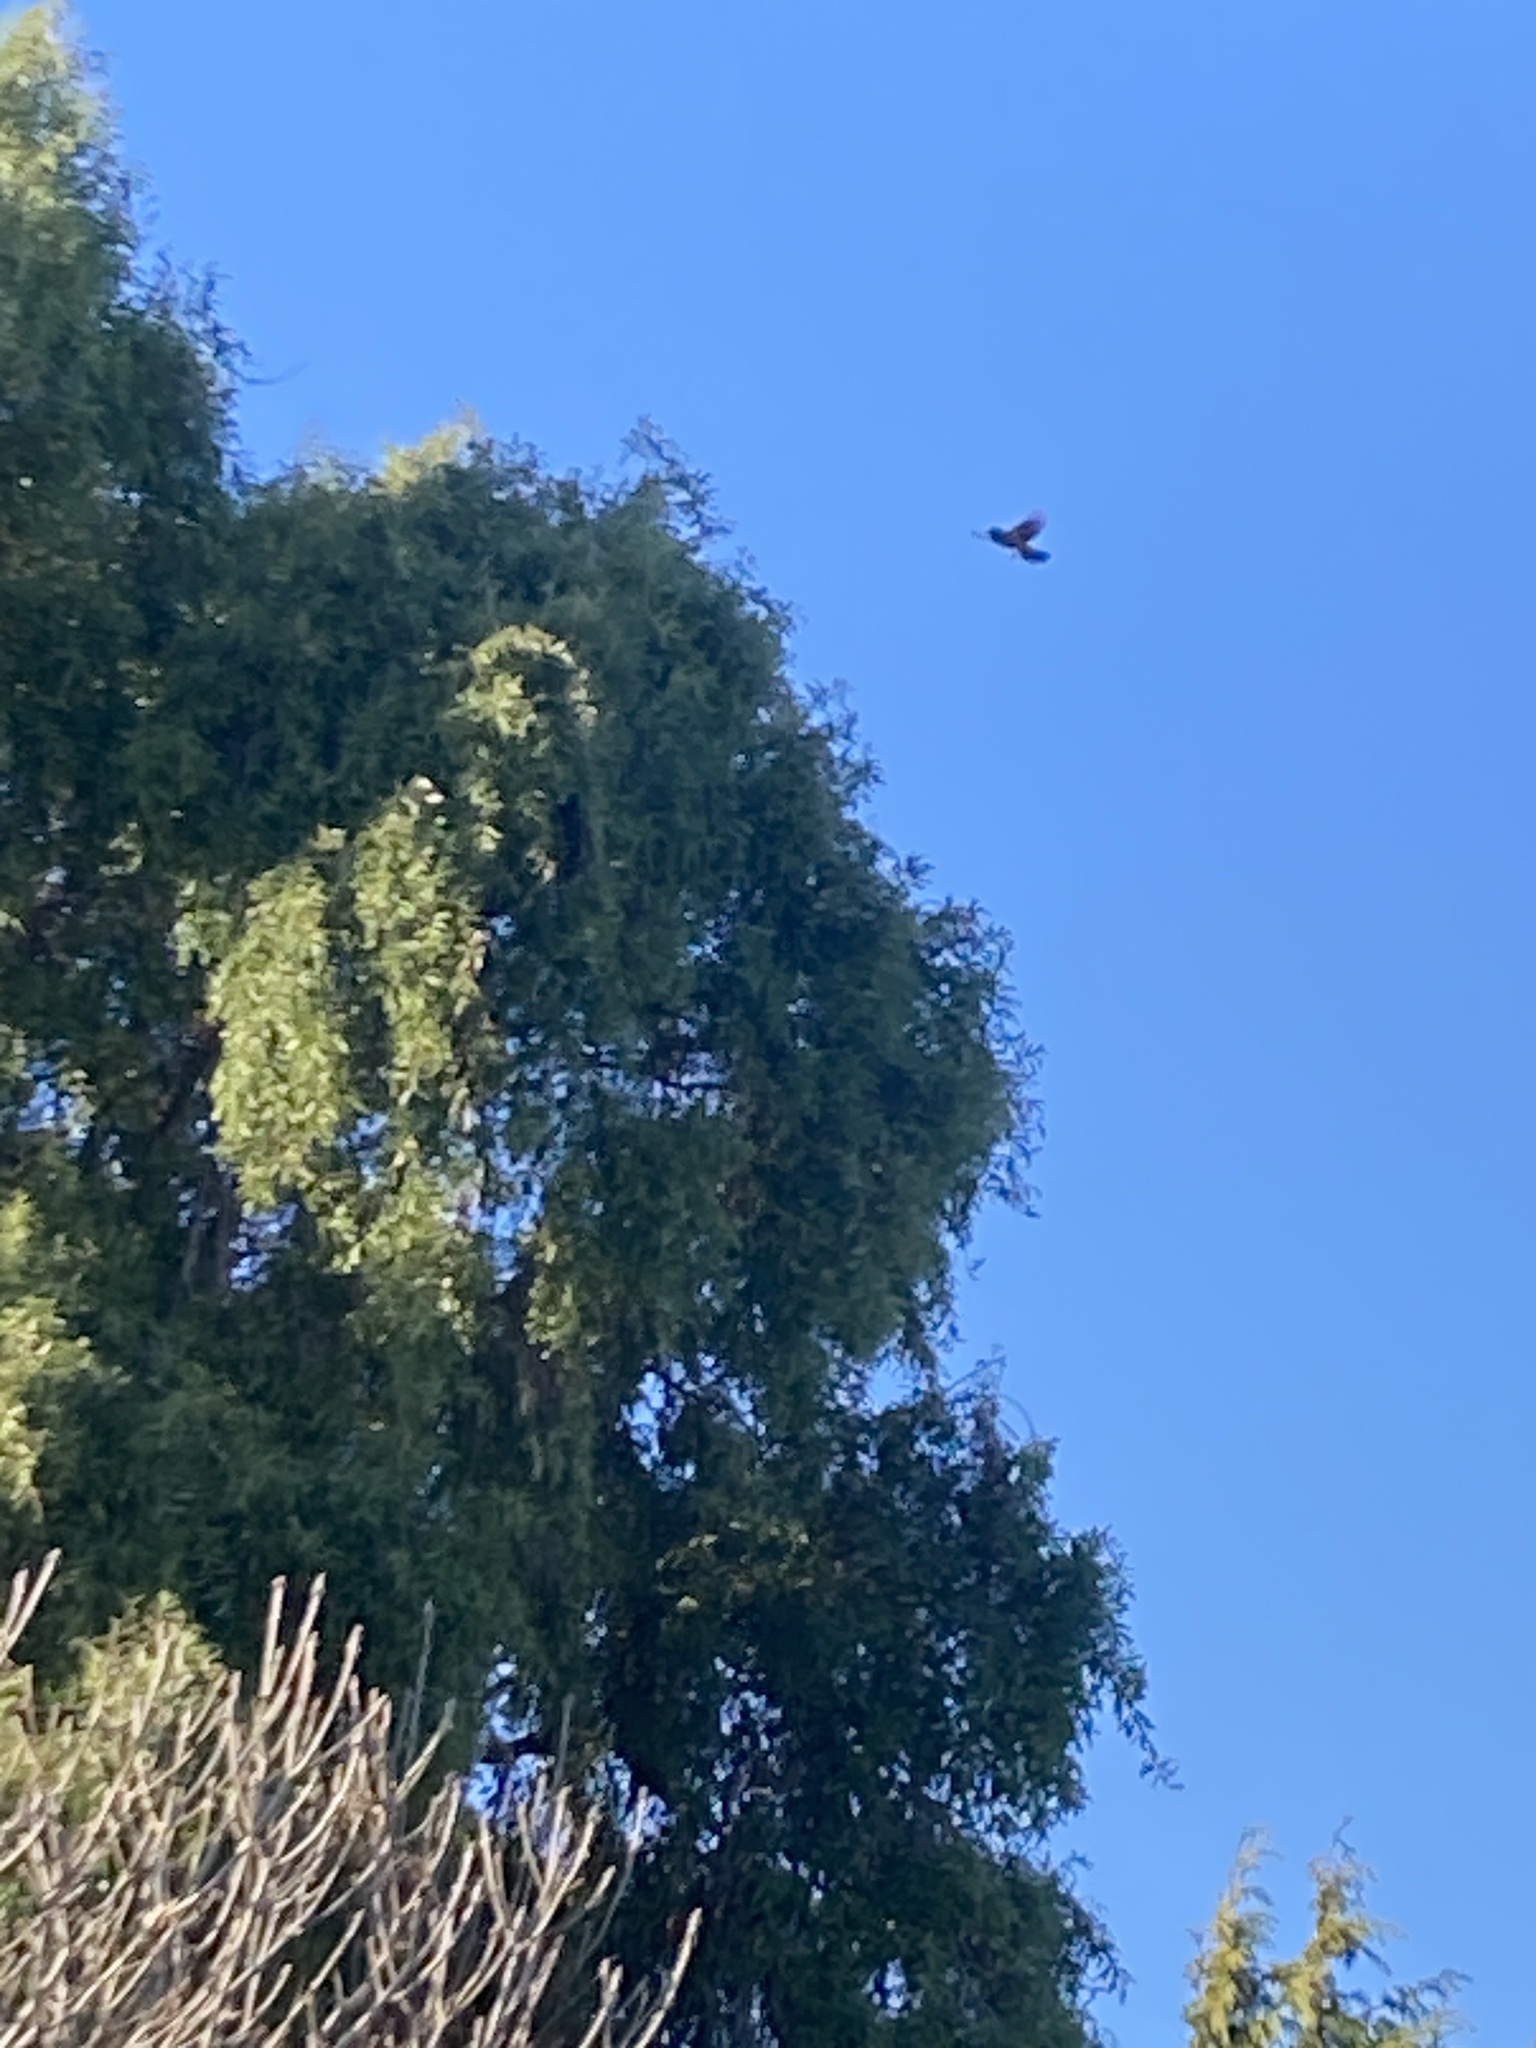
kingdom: Animalia
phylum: Chordata
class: Aves
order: Passeriformes
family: Meliphagidae
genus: Anthornis
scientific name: Anthornis melanura
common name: New zealand bellbird
